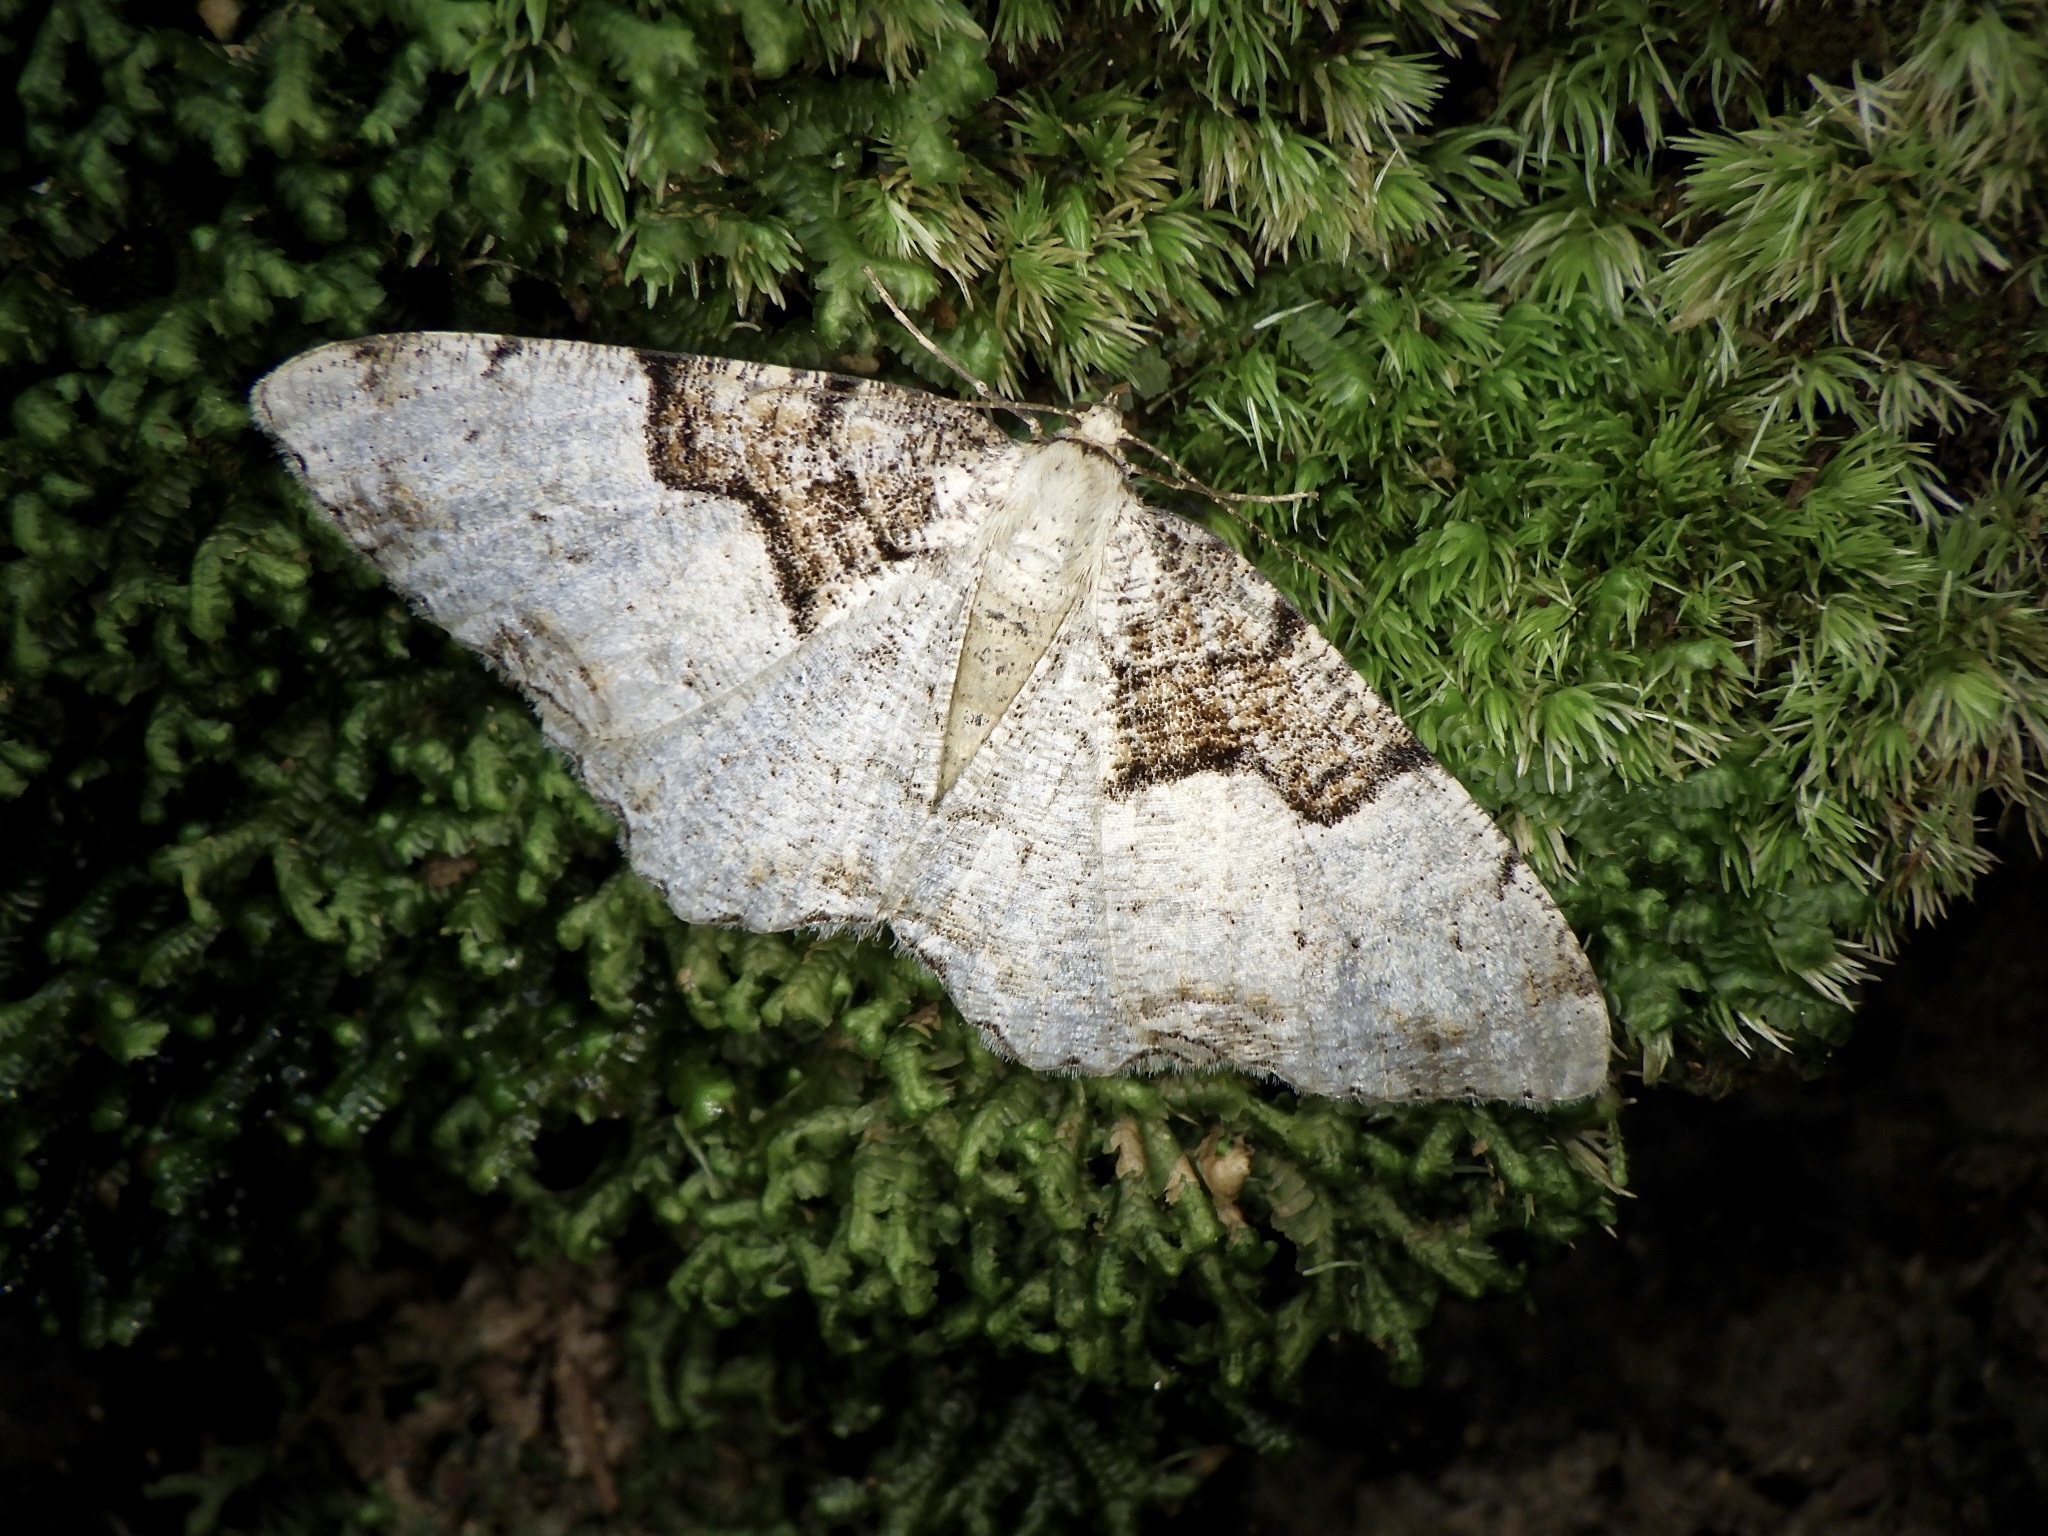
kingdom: Animalia
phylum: Arthropoda
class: Insecta
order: Lepidoptera
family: Geometridae
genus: Ramobia
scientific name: Ramobia mediodivisa
